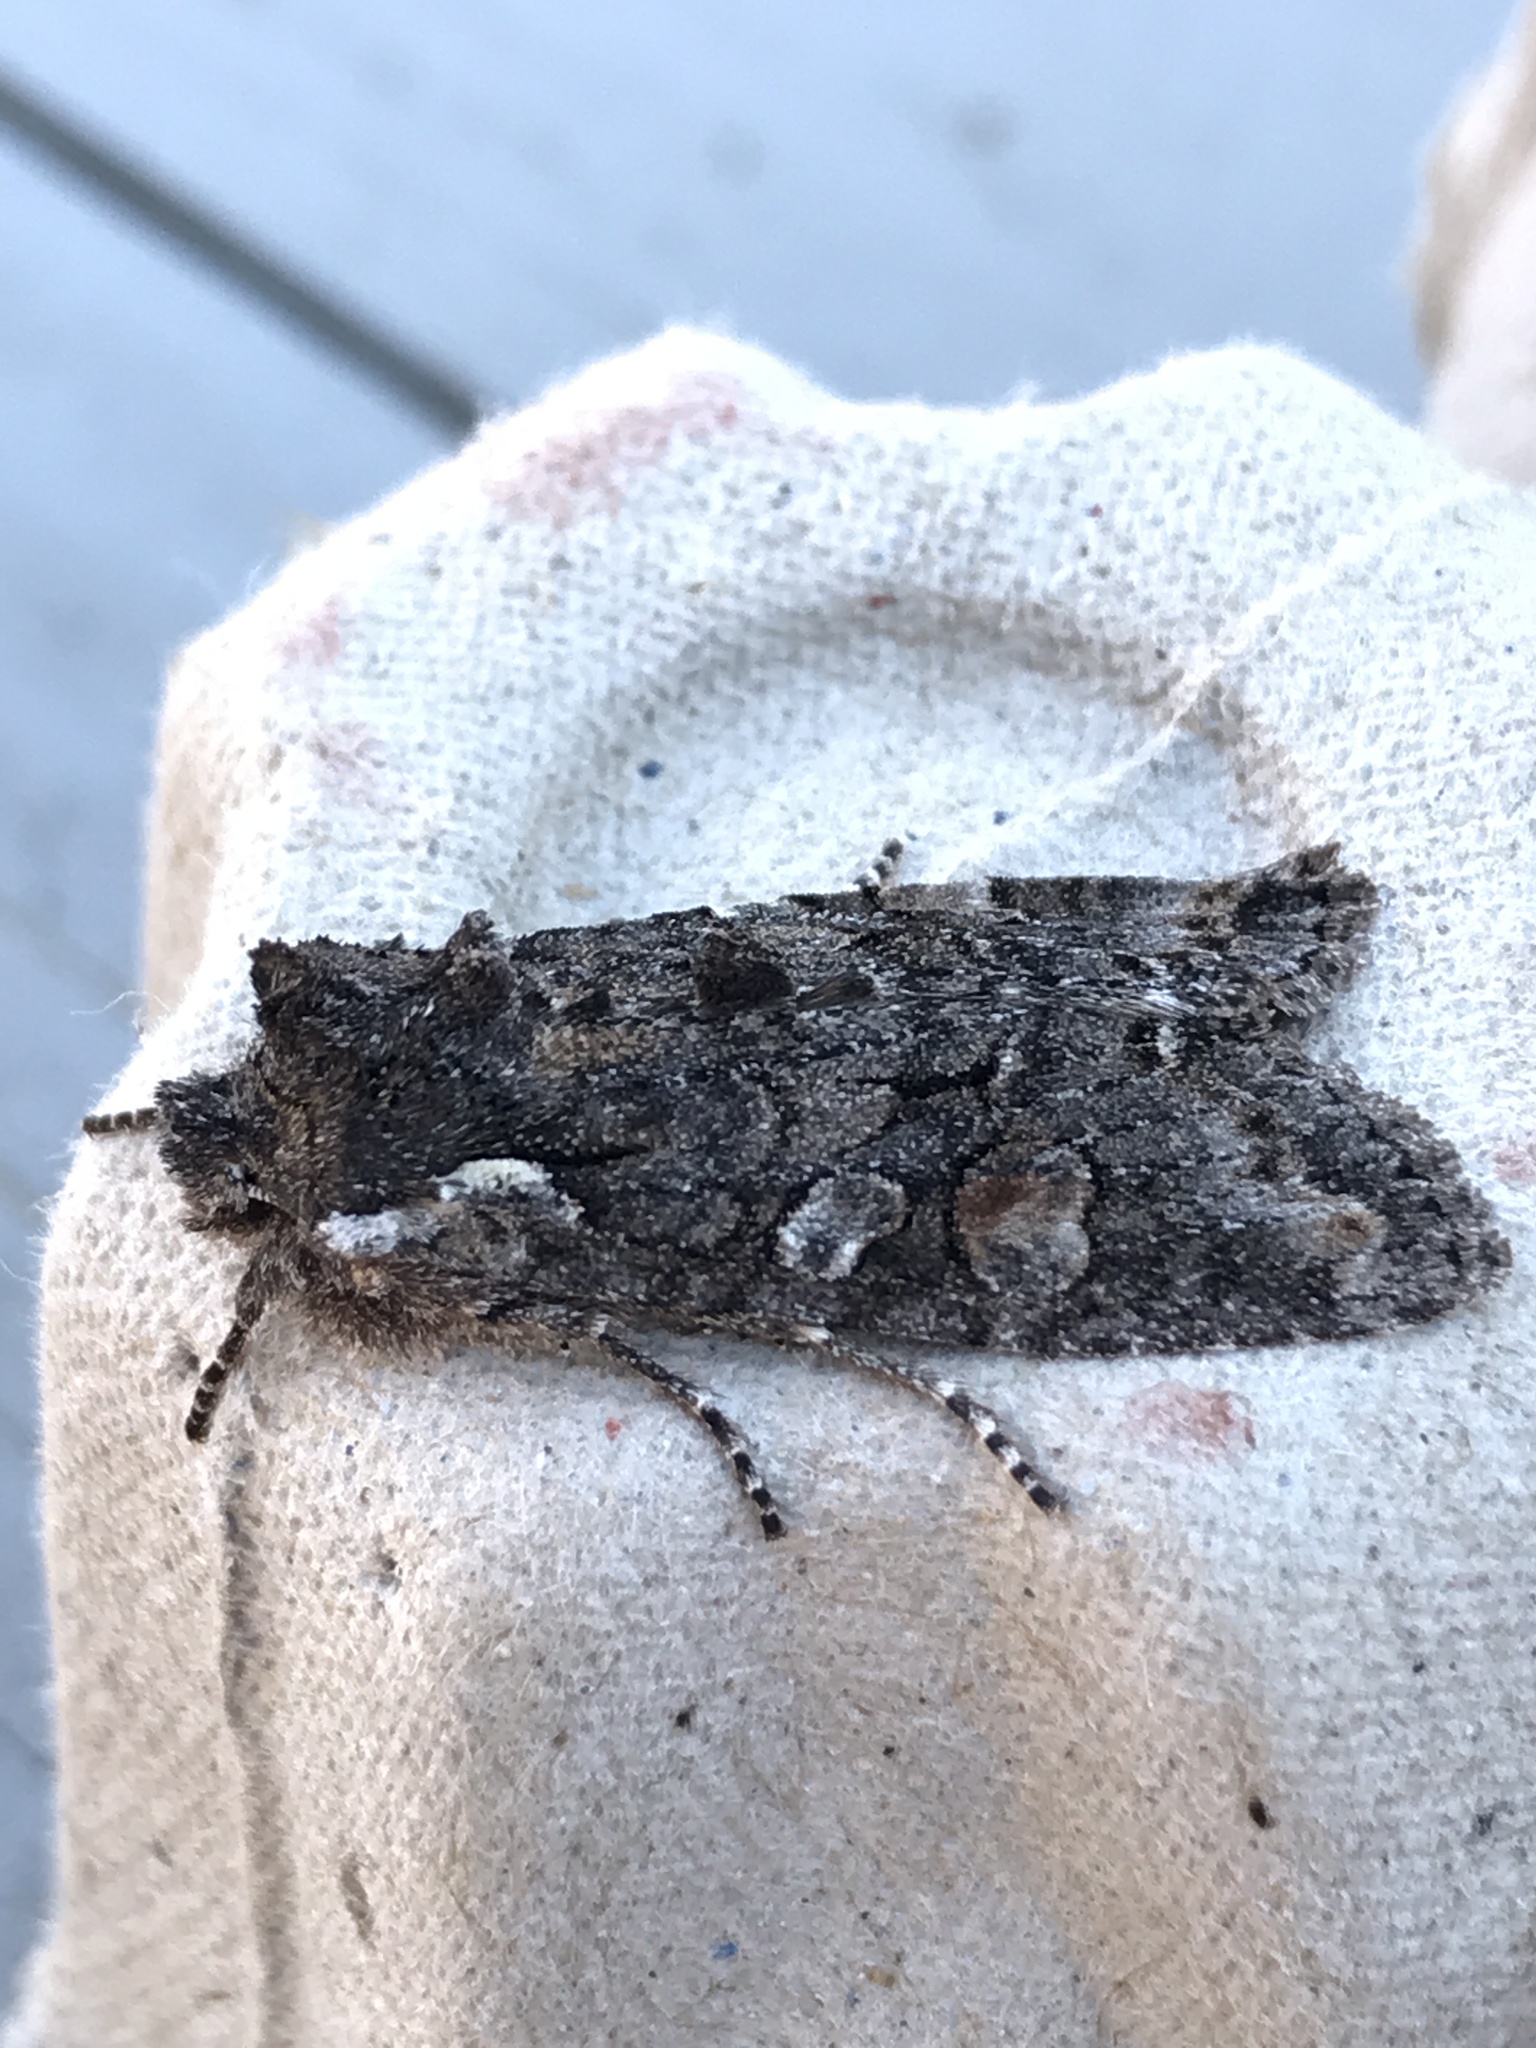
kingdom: Animalia
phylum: Arthropoda
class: Insecta
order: Lepidoptera
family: Noctuidae
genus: Lithophane
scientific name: Lithophane pexata
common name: Plush-naped pinion moth
